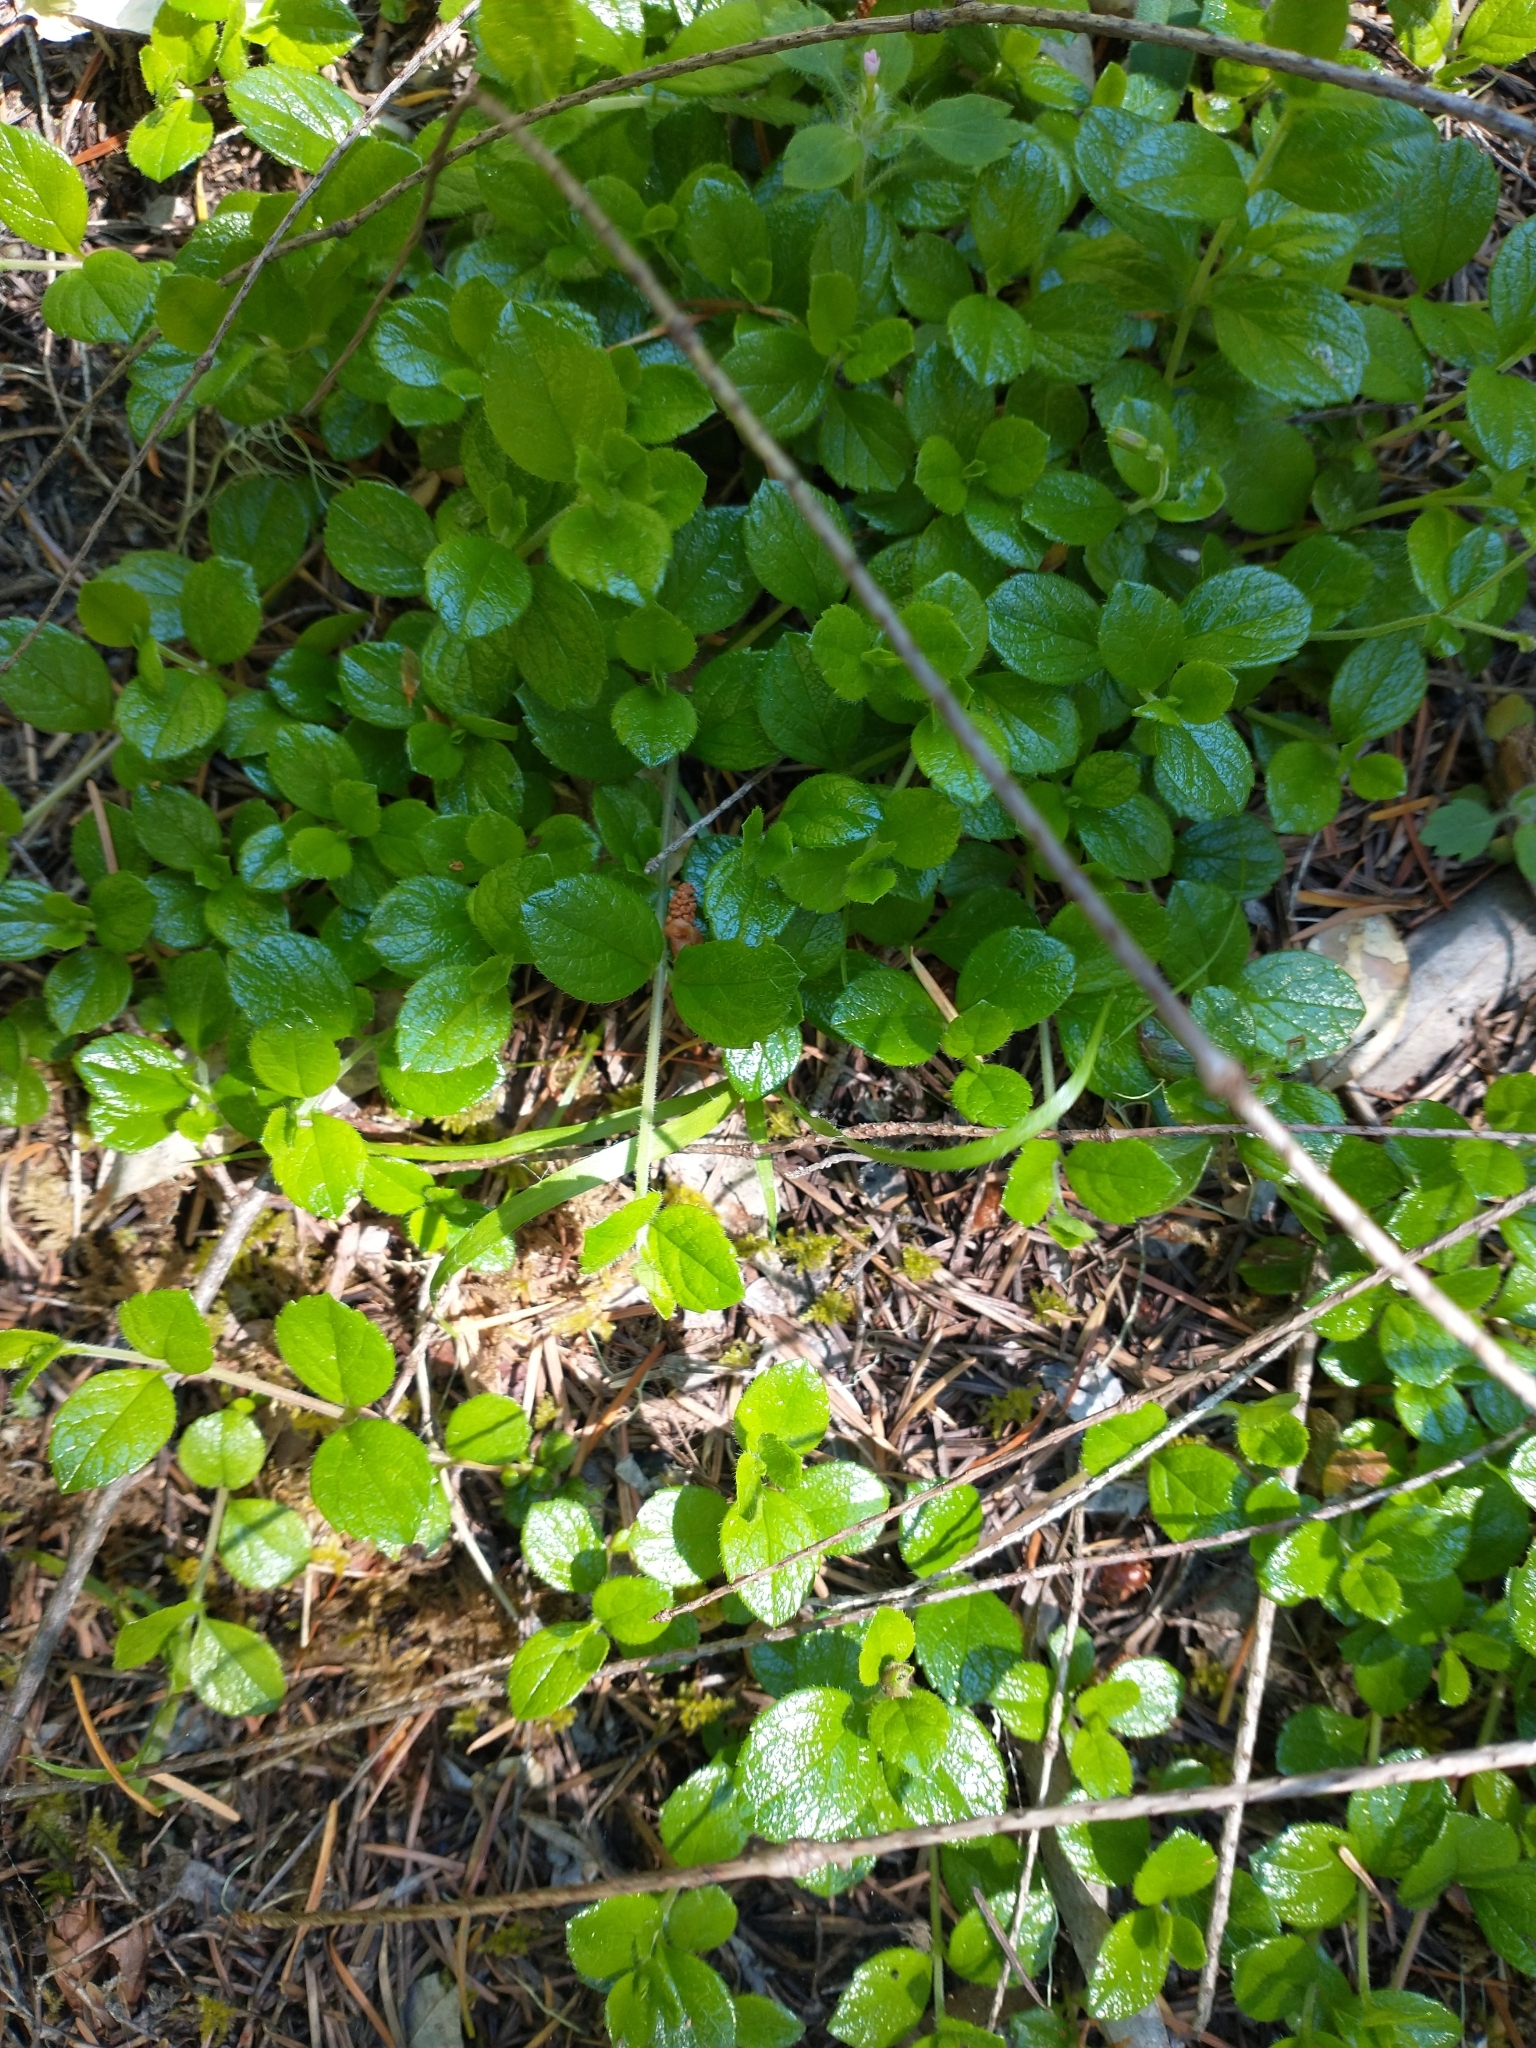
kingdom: Plantae
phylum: Tracheophyta
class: Magnoliopsida
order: Dipsacales
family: Caprifoliaceae
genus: Linnaea
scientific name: Linnaea borealis
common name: Twinflower
